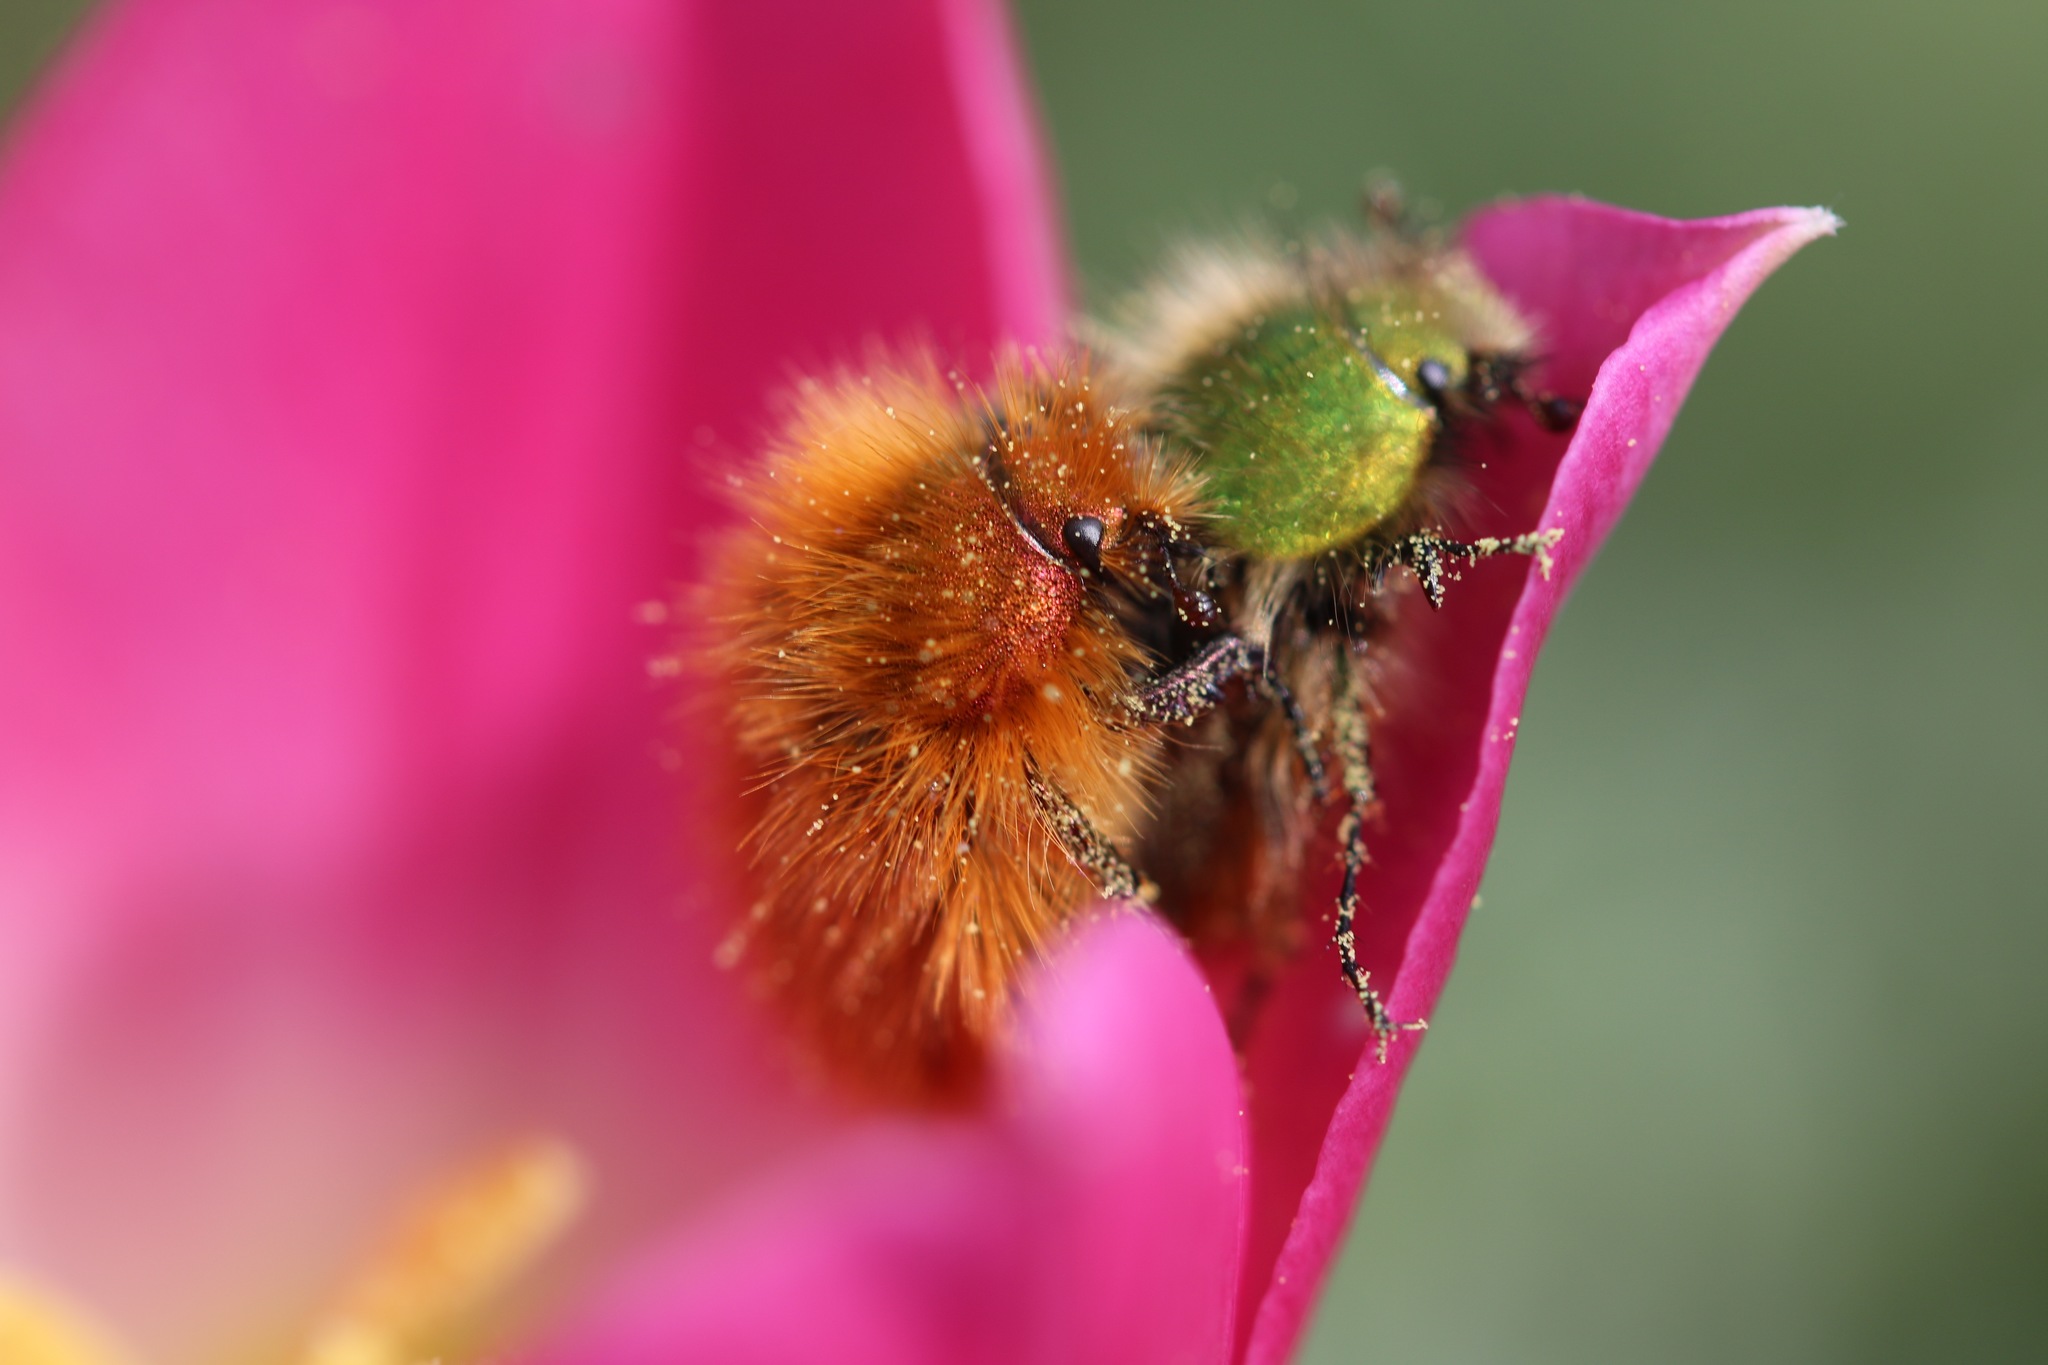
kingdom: Animalia
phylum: Arthropoda
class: Insecta
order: Coleoptera
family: Glaphyridae
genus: Pygopleurus
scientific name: Pygopleurus vulpes
